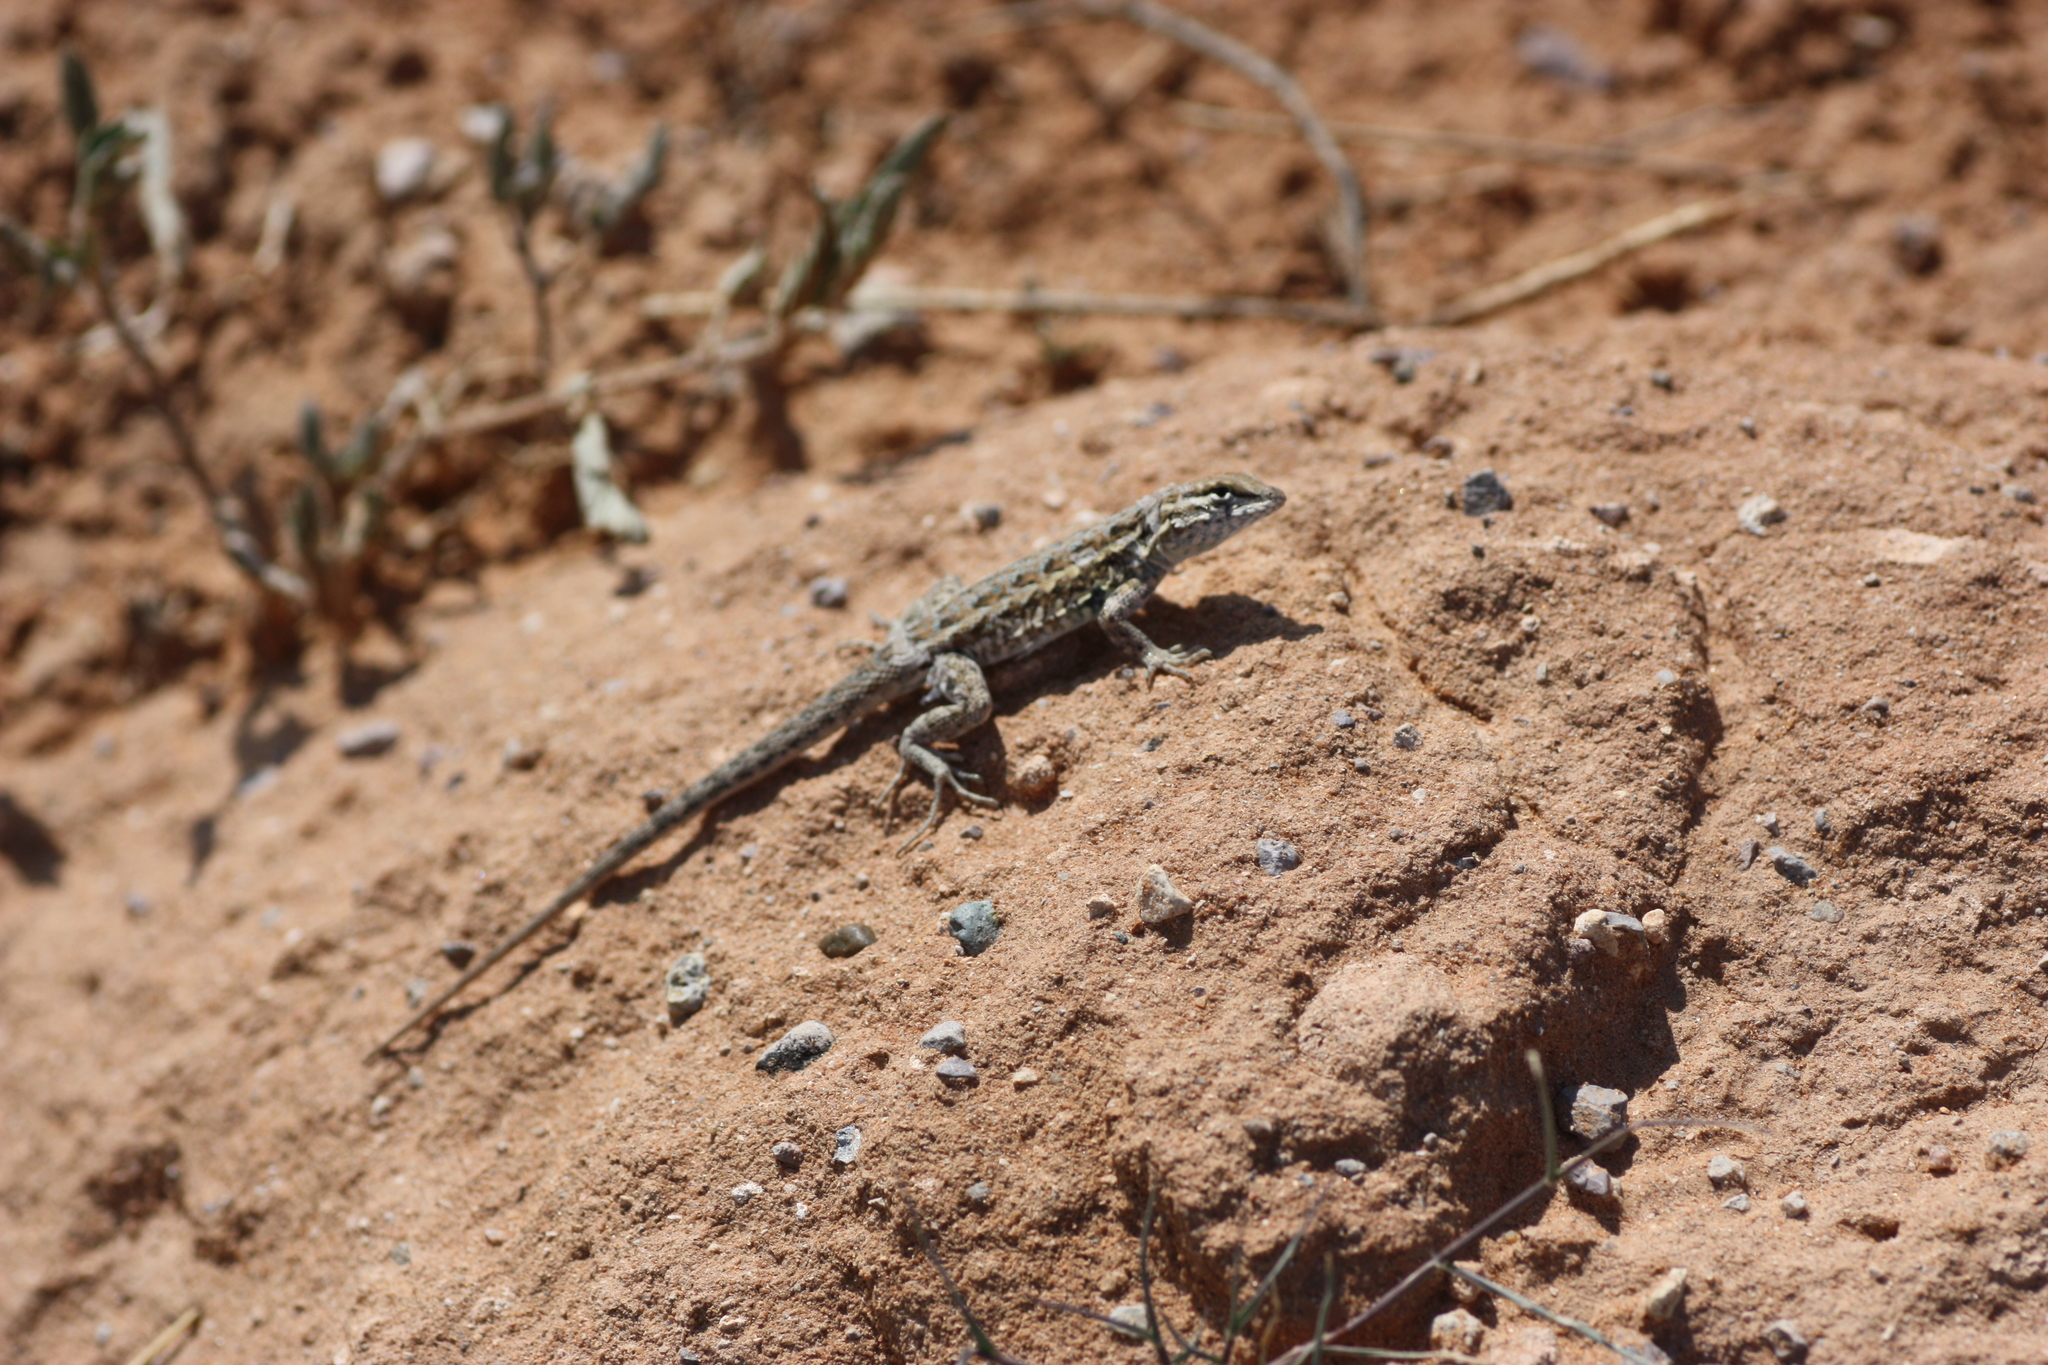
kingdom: Animalia
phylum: Chordata
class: Squamata
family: Phrynosomatidae
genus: Uta
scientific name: Uta stansburiana
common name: Side-blotched lizard
